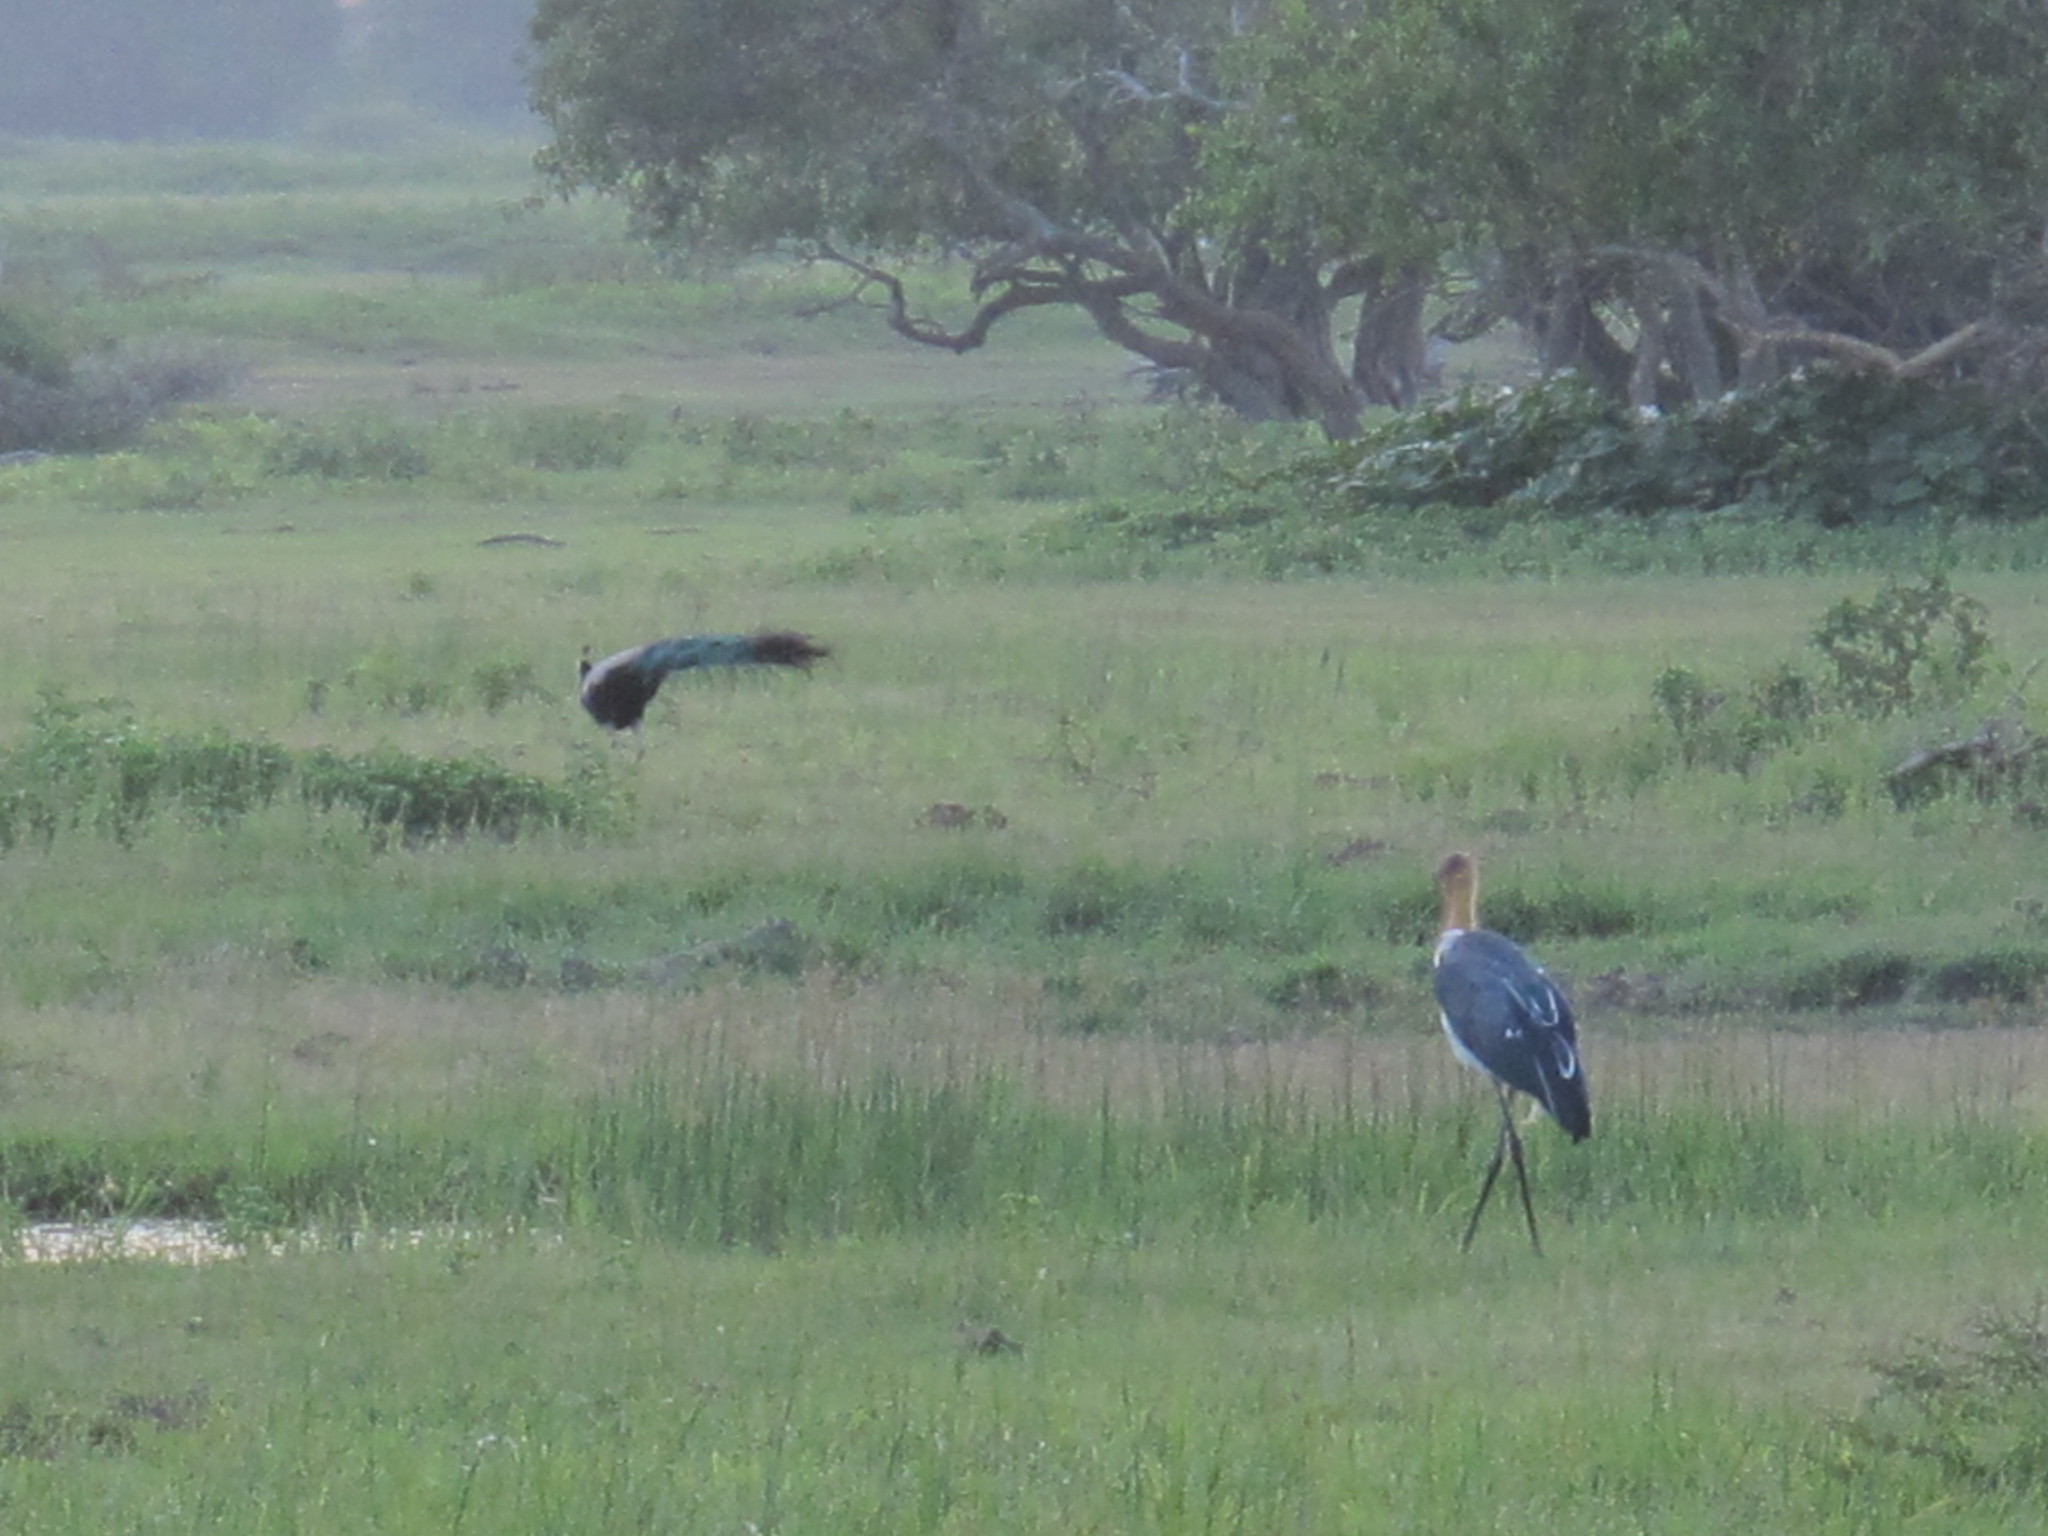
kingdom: Animalia
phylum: Chordata
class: Aves
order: Ciconiiformes
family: Ciconiidae
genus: Leptoptilos
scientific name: Leptoptilos javanicus
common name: Lesser adjutant
